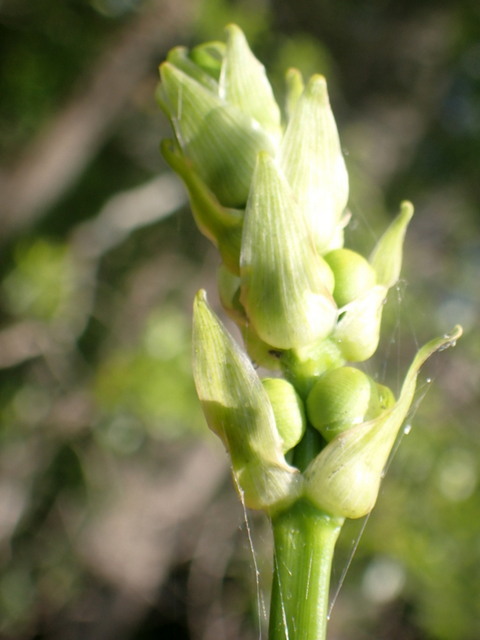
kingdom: Plantae
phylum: Tracheophyta
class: Liliopsida
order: Alismatales
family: Alismataceae
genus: Sagittaria
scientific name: Sagittaria lancifolia
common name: Lance-leaf arrowhead
